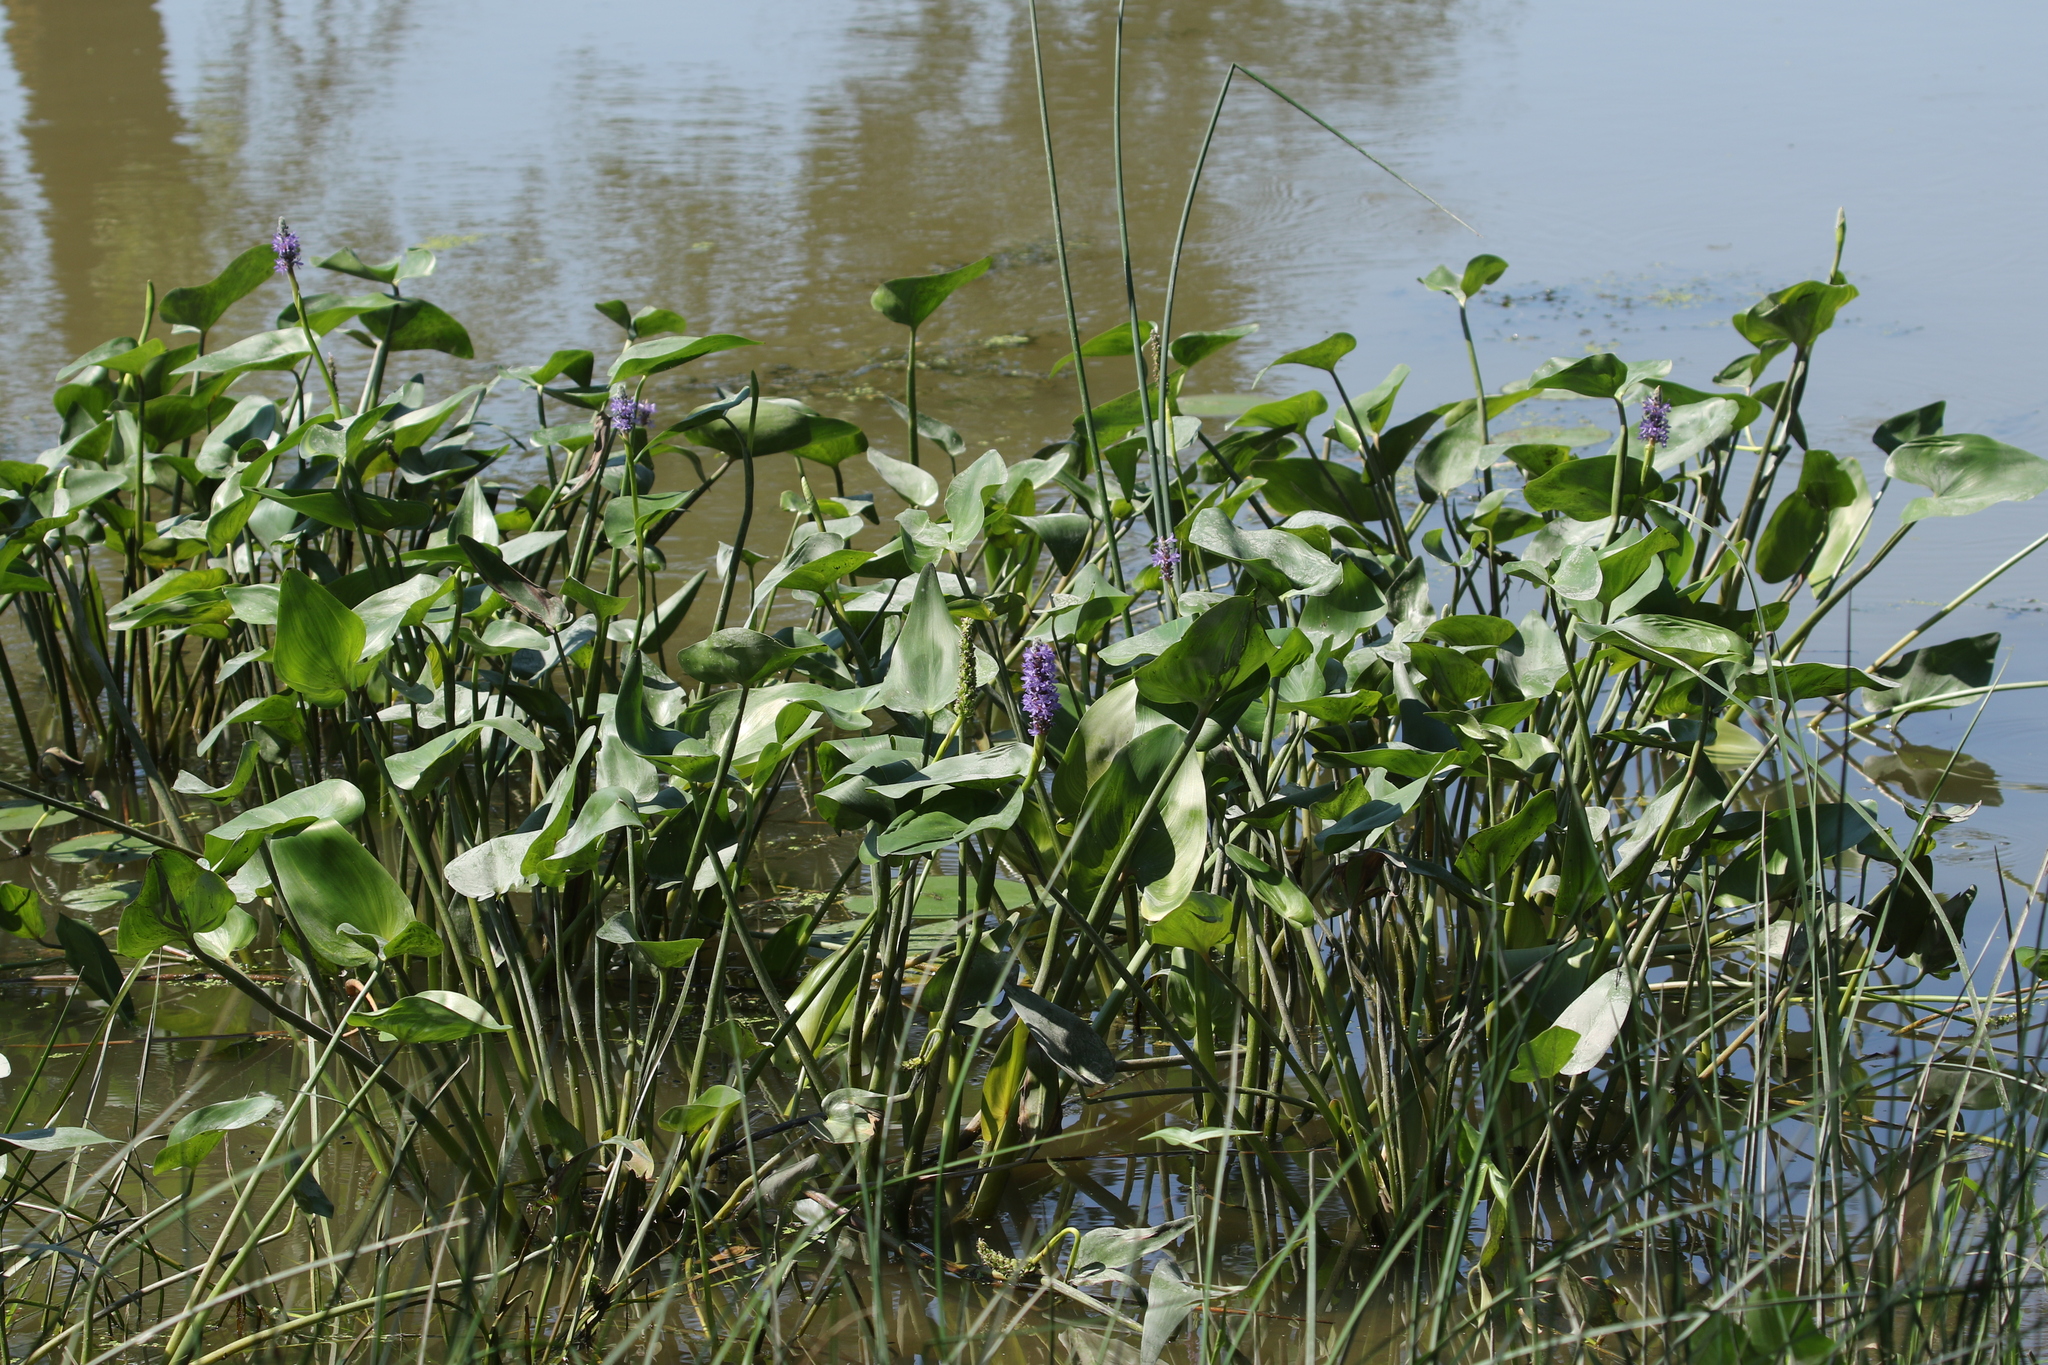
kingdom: Plantae
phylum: Tracheophyta
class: Liliopsida
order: Commelinales
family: Pontederiaceae
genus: Pontederia
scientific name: Pontederia cordata
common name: Pickerelweed
